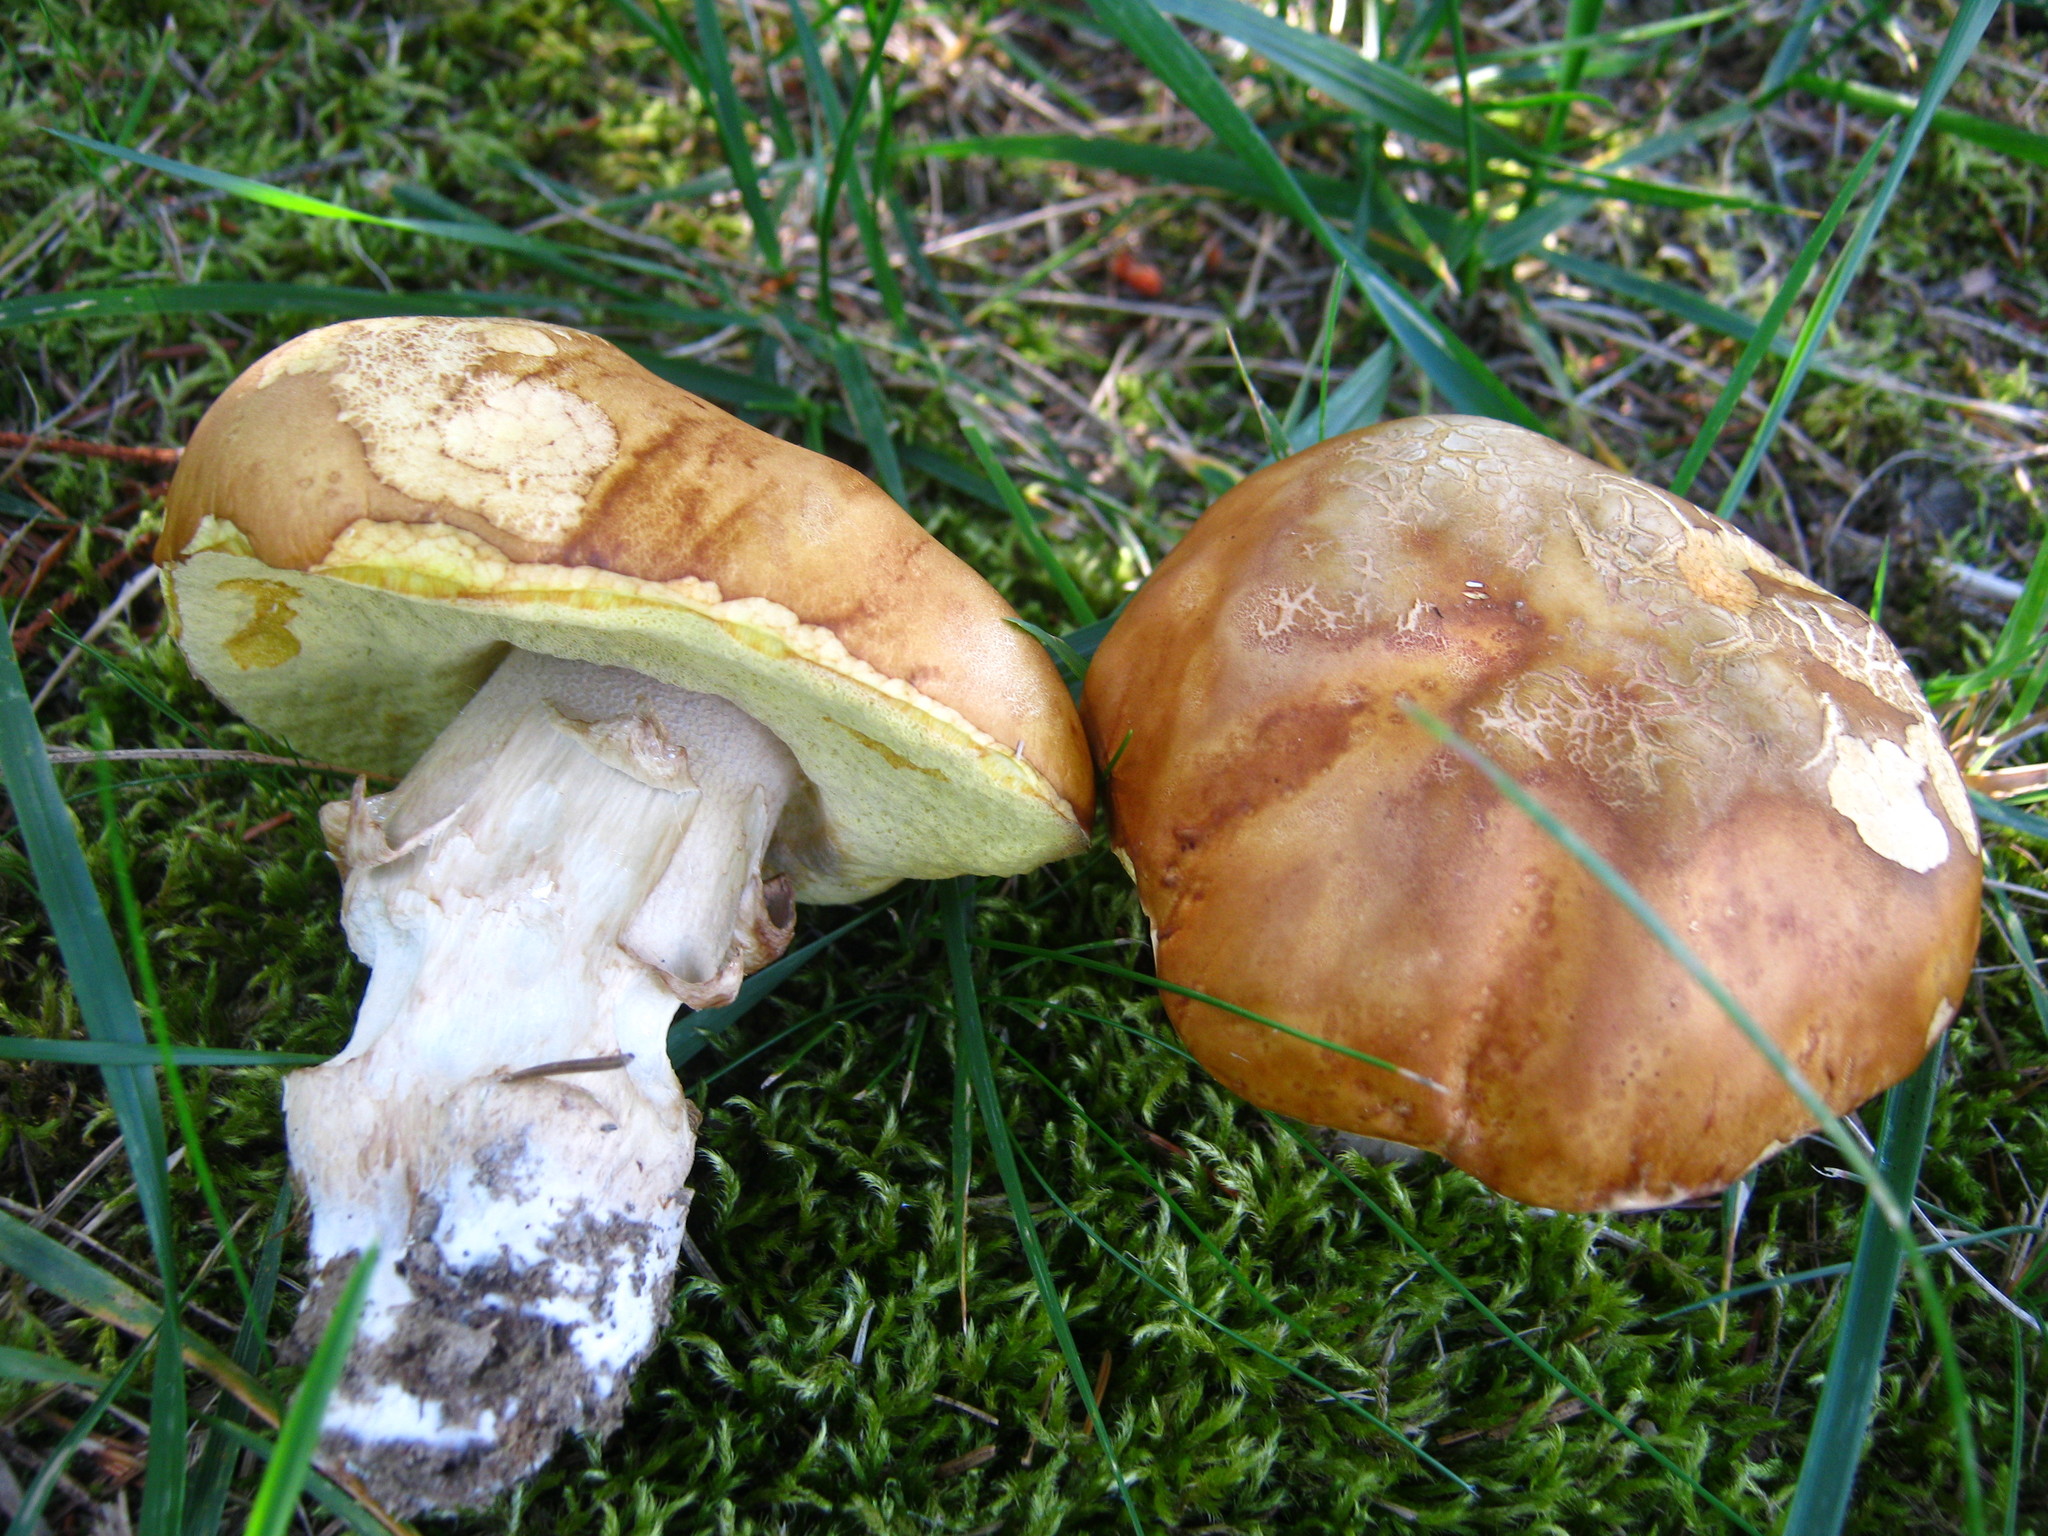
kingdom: Fungi
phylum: Basidiomycota
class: Agaricomycetes
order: Boletales
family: Boletaceae
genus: Boletus
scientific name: Boletus chippewaensis
